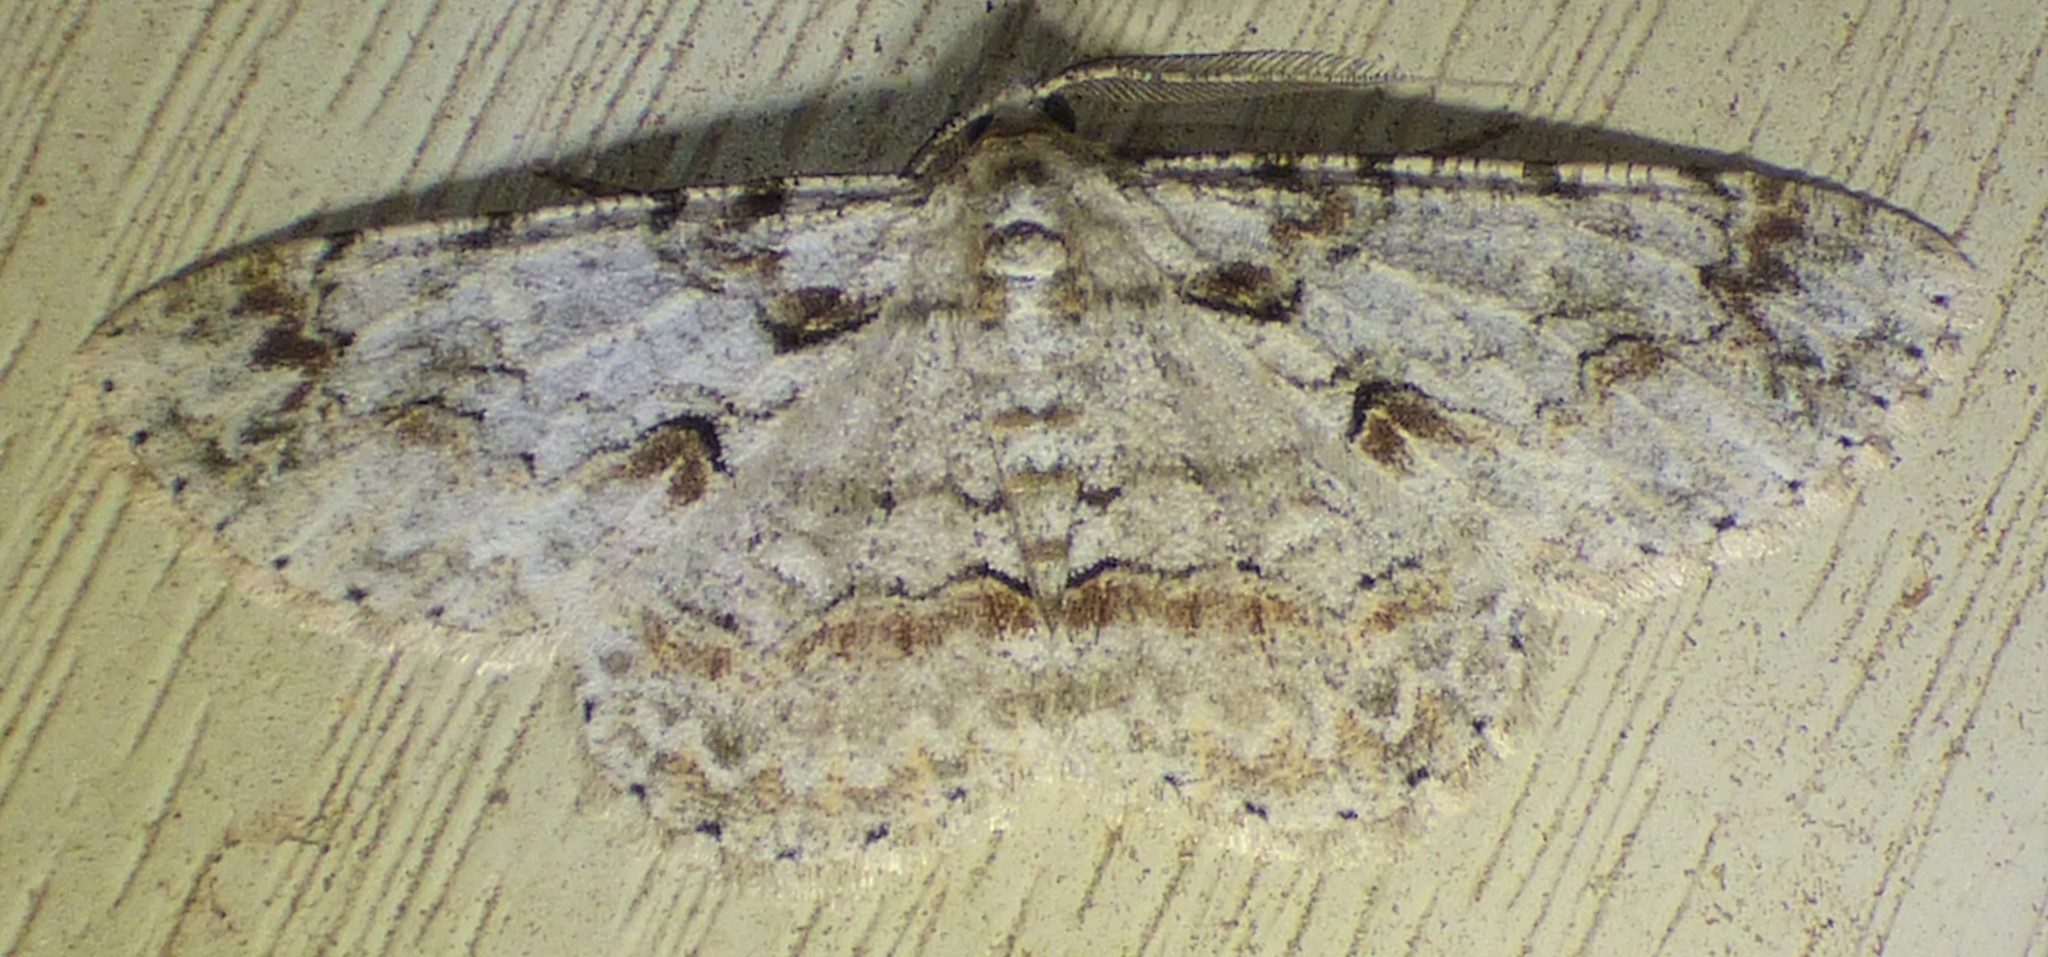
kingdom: Animalia
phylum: Arthropoda
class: Insecta
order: Lepidoptera
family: Geometridae
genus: Iridopsis
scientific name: Iridopsis defectaria
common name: Brown-shaded gray
